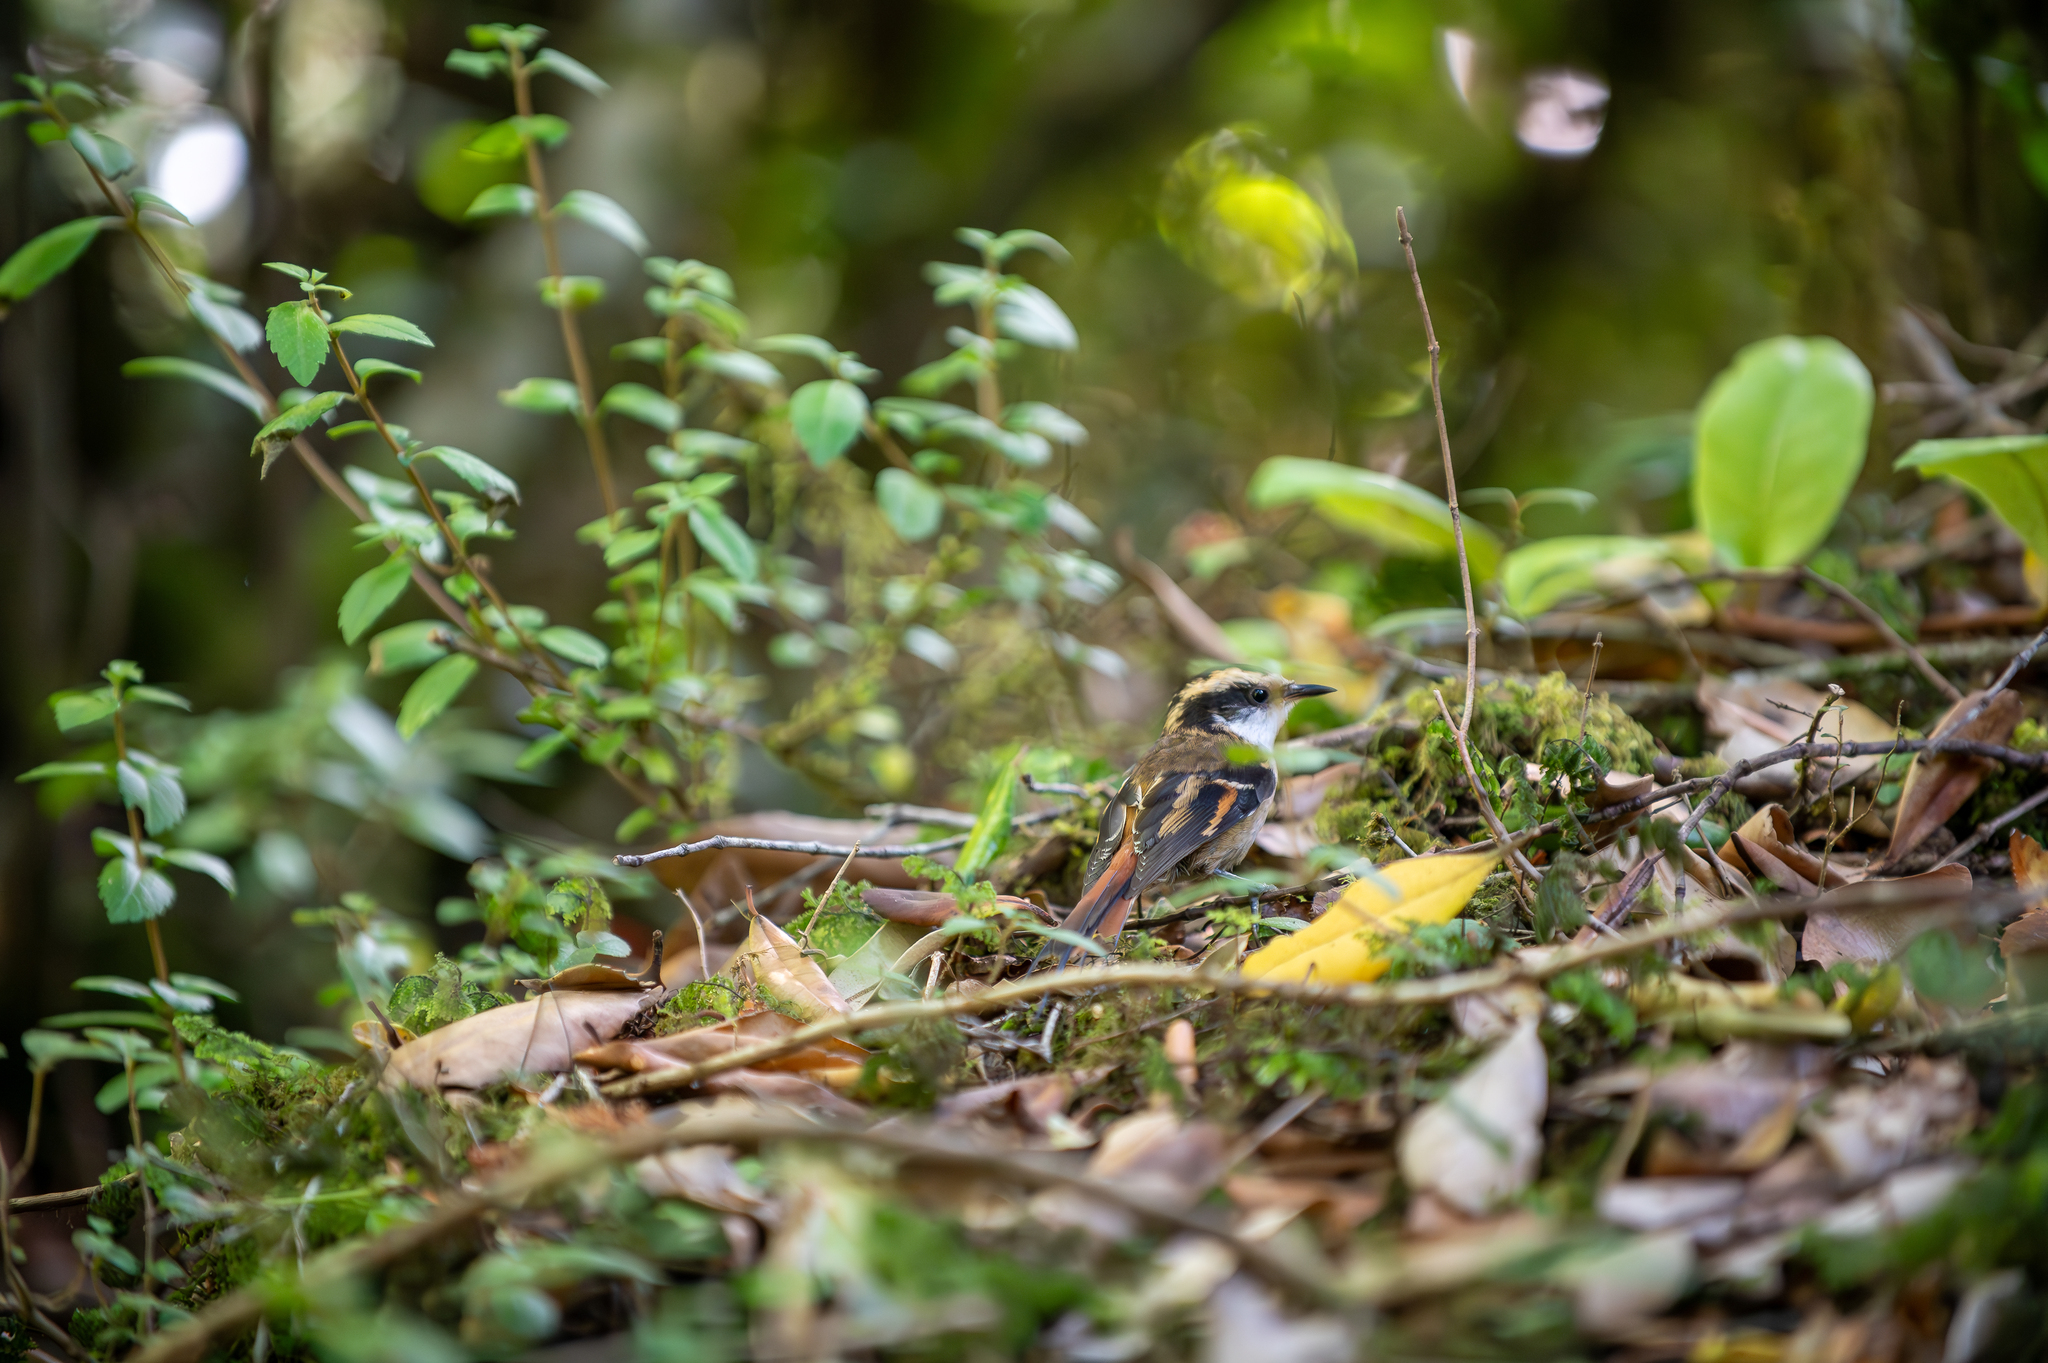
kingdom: Animalia
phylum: Chordata
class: Aves
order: Passeriformes
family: Furnariidae
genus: Aphrastura
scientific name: Aphrastura spinicauda
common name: Thorn-tailed rayadito
